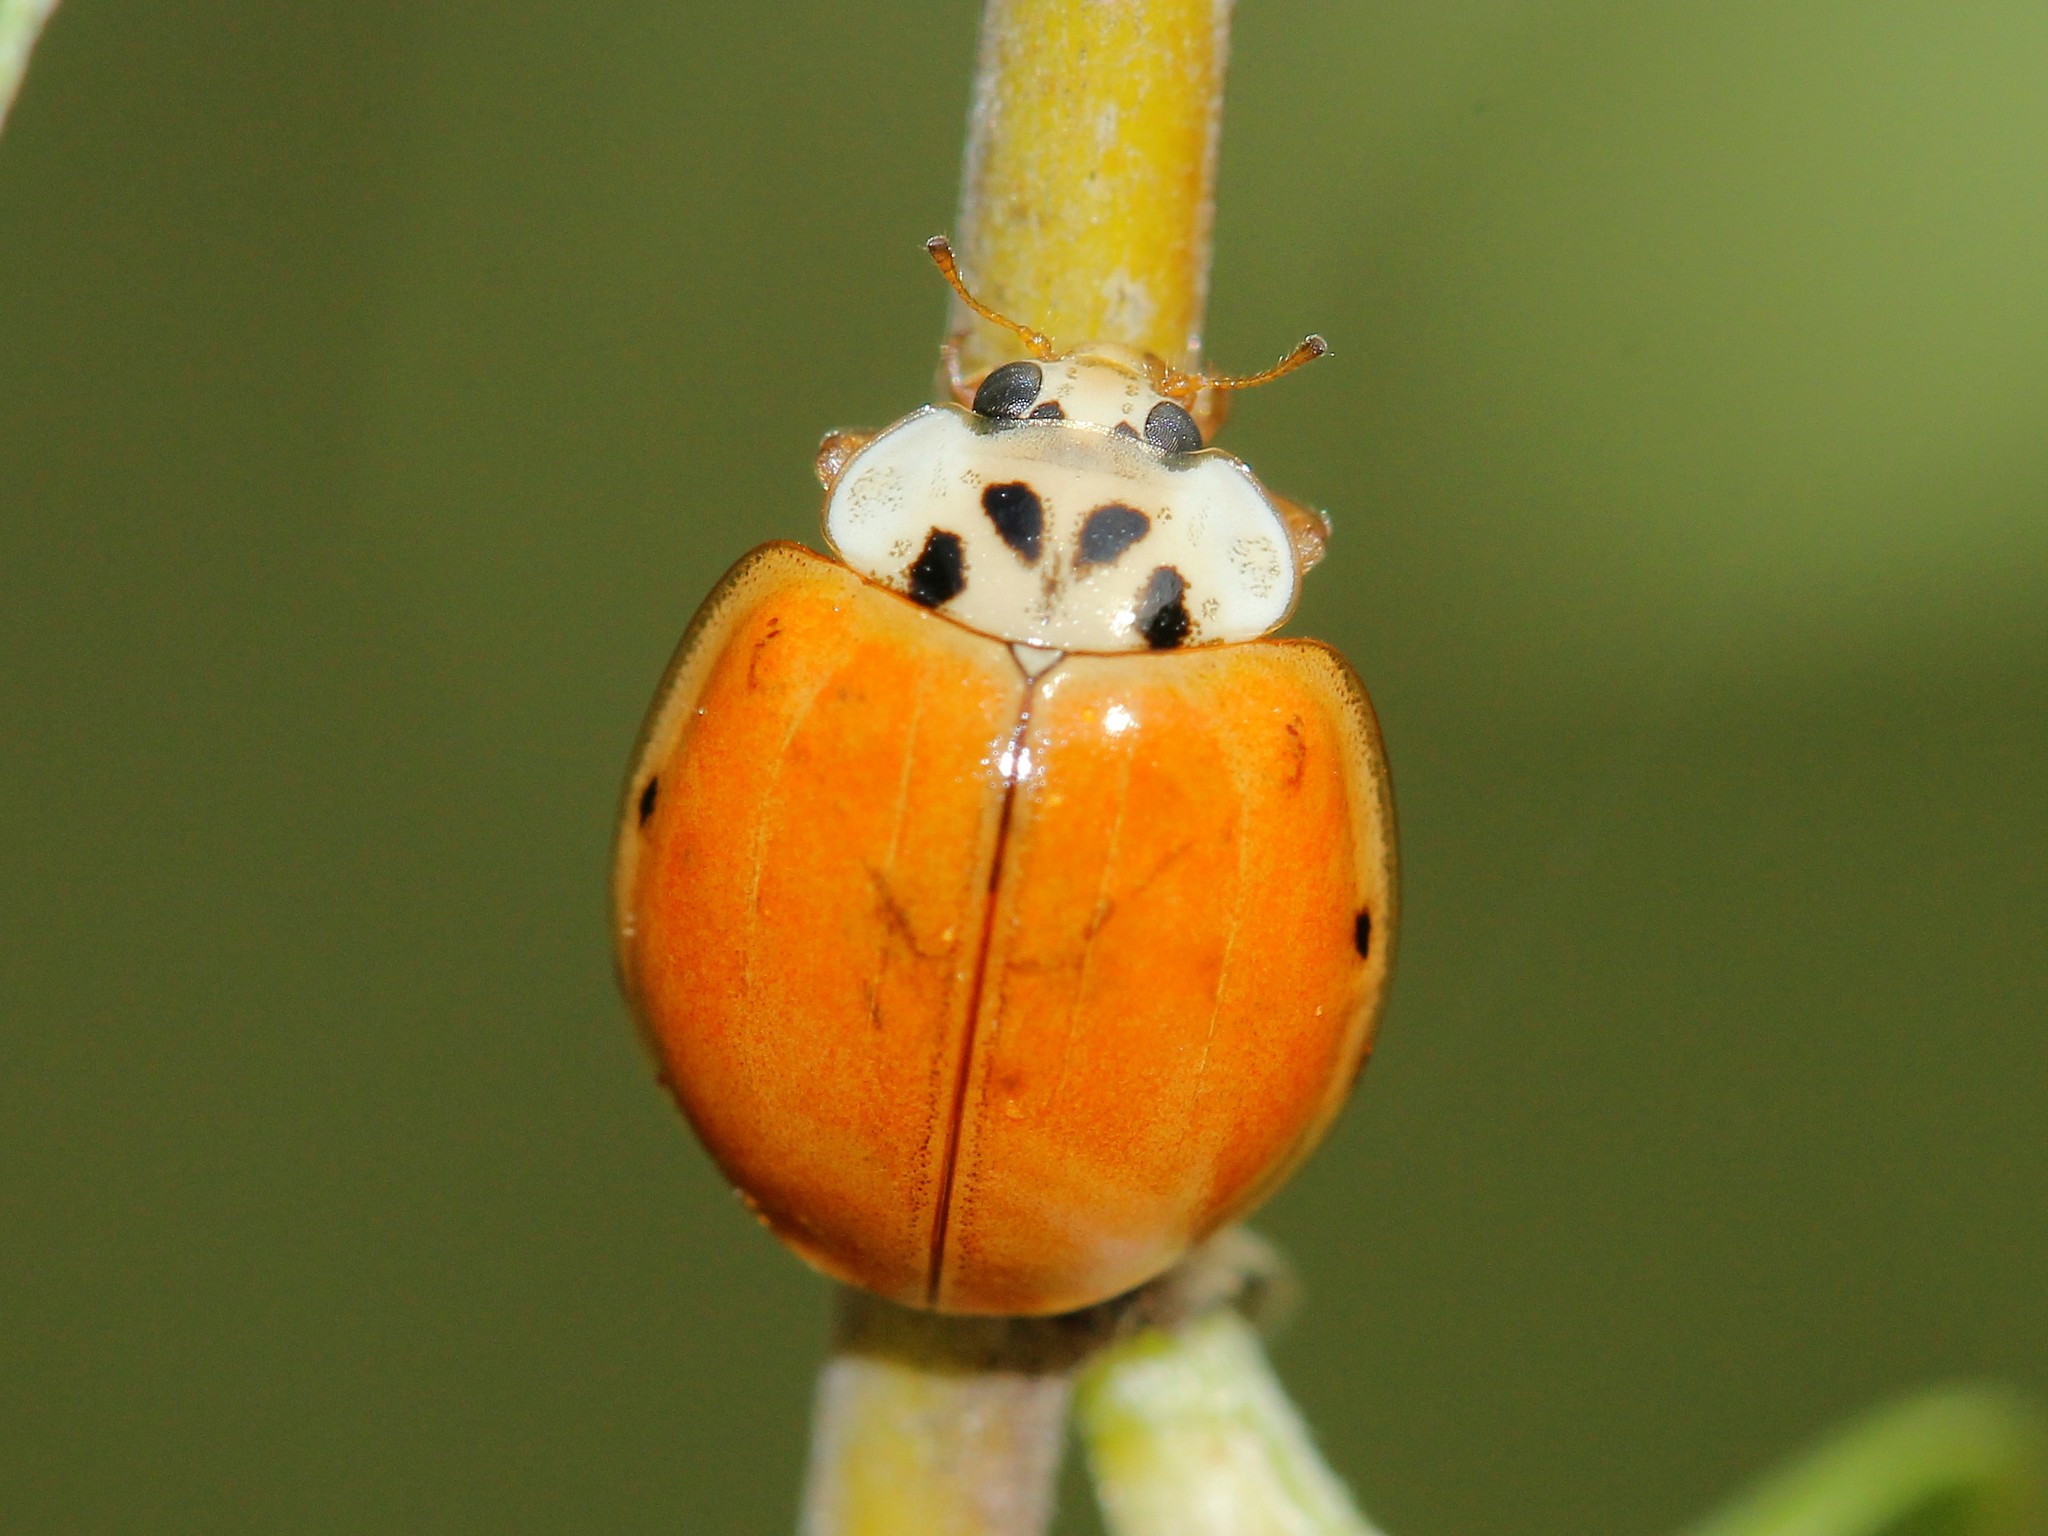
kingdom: Animalia
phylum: Arthropoda
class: Insecta
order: Coleoptera
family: Coccinellidae
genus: Harmonia
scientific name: Harmonia axyridis
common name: Harlequin ladybird
